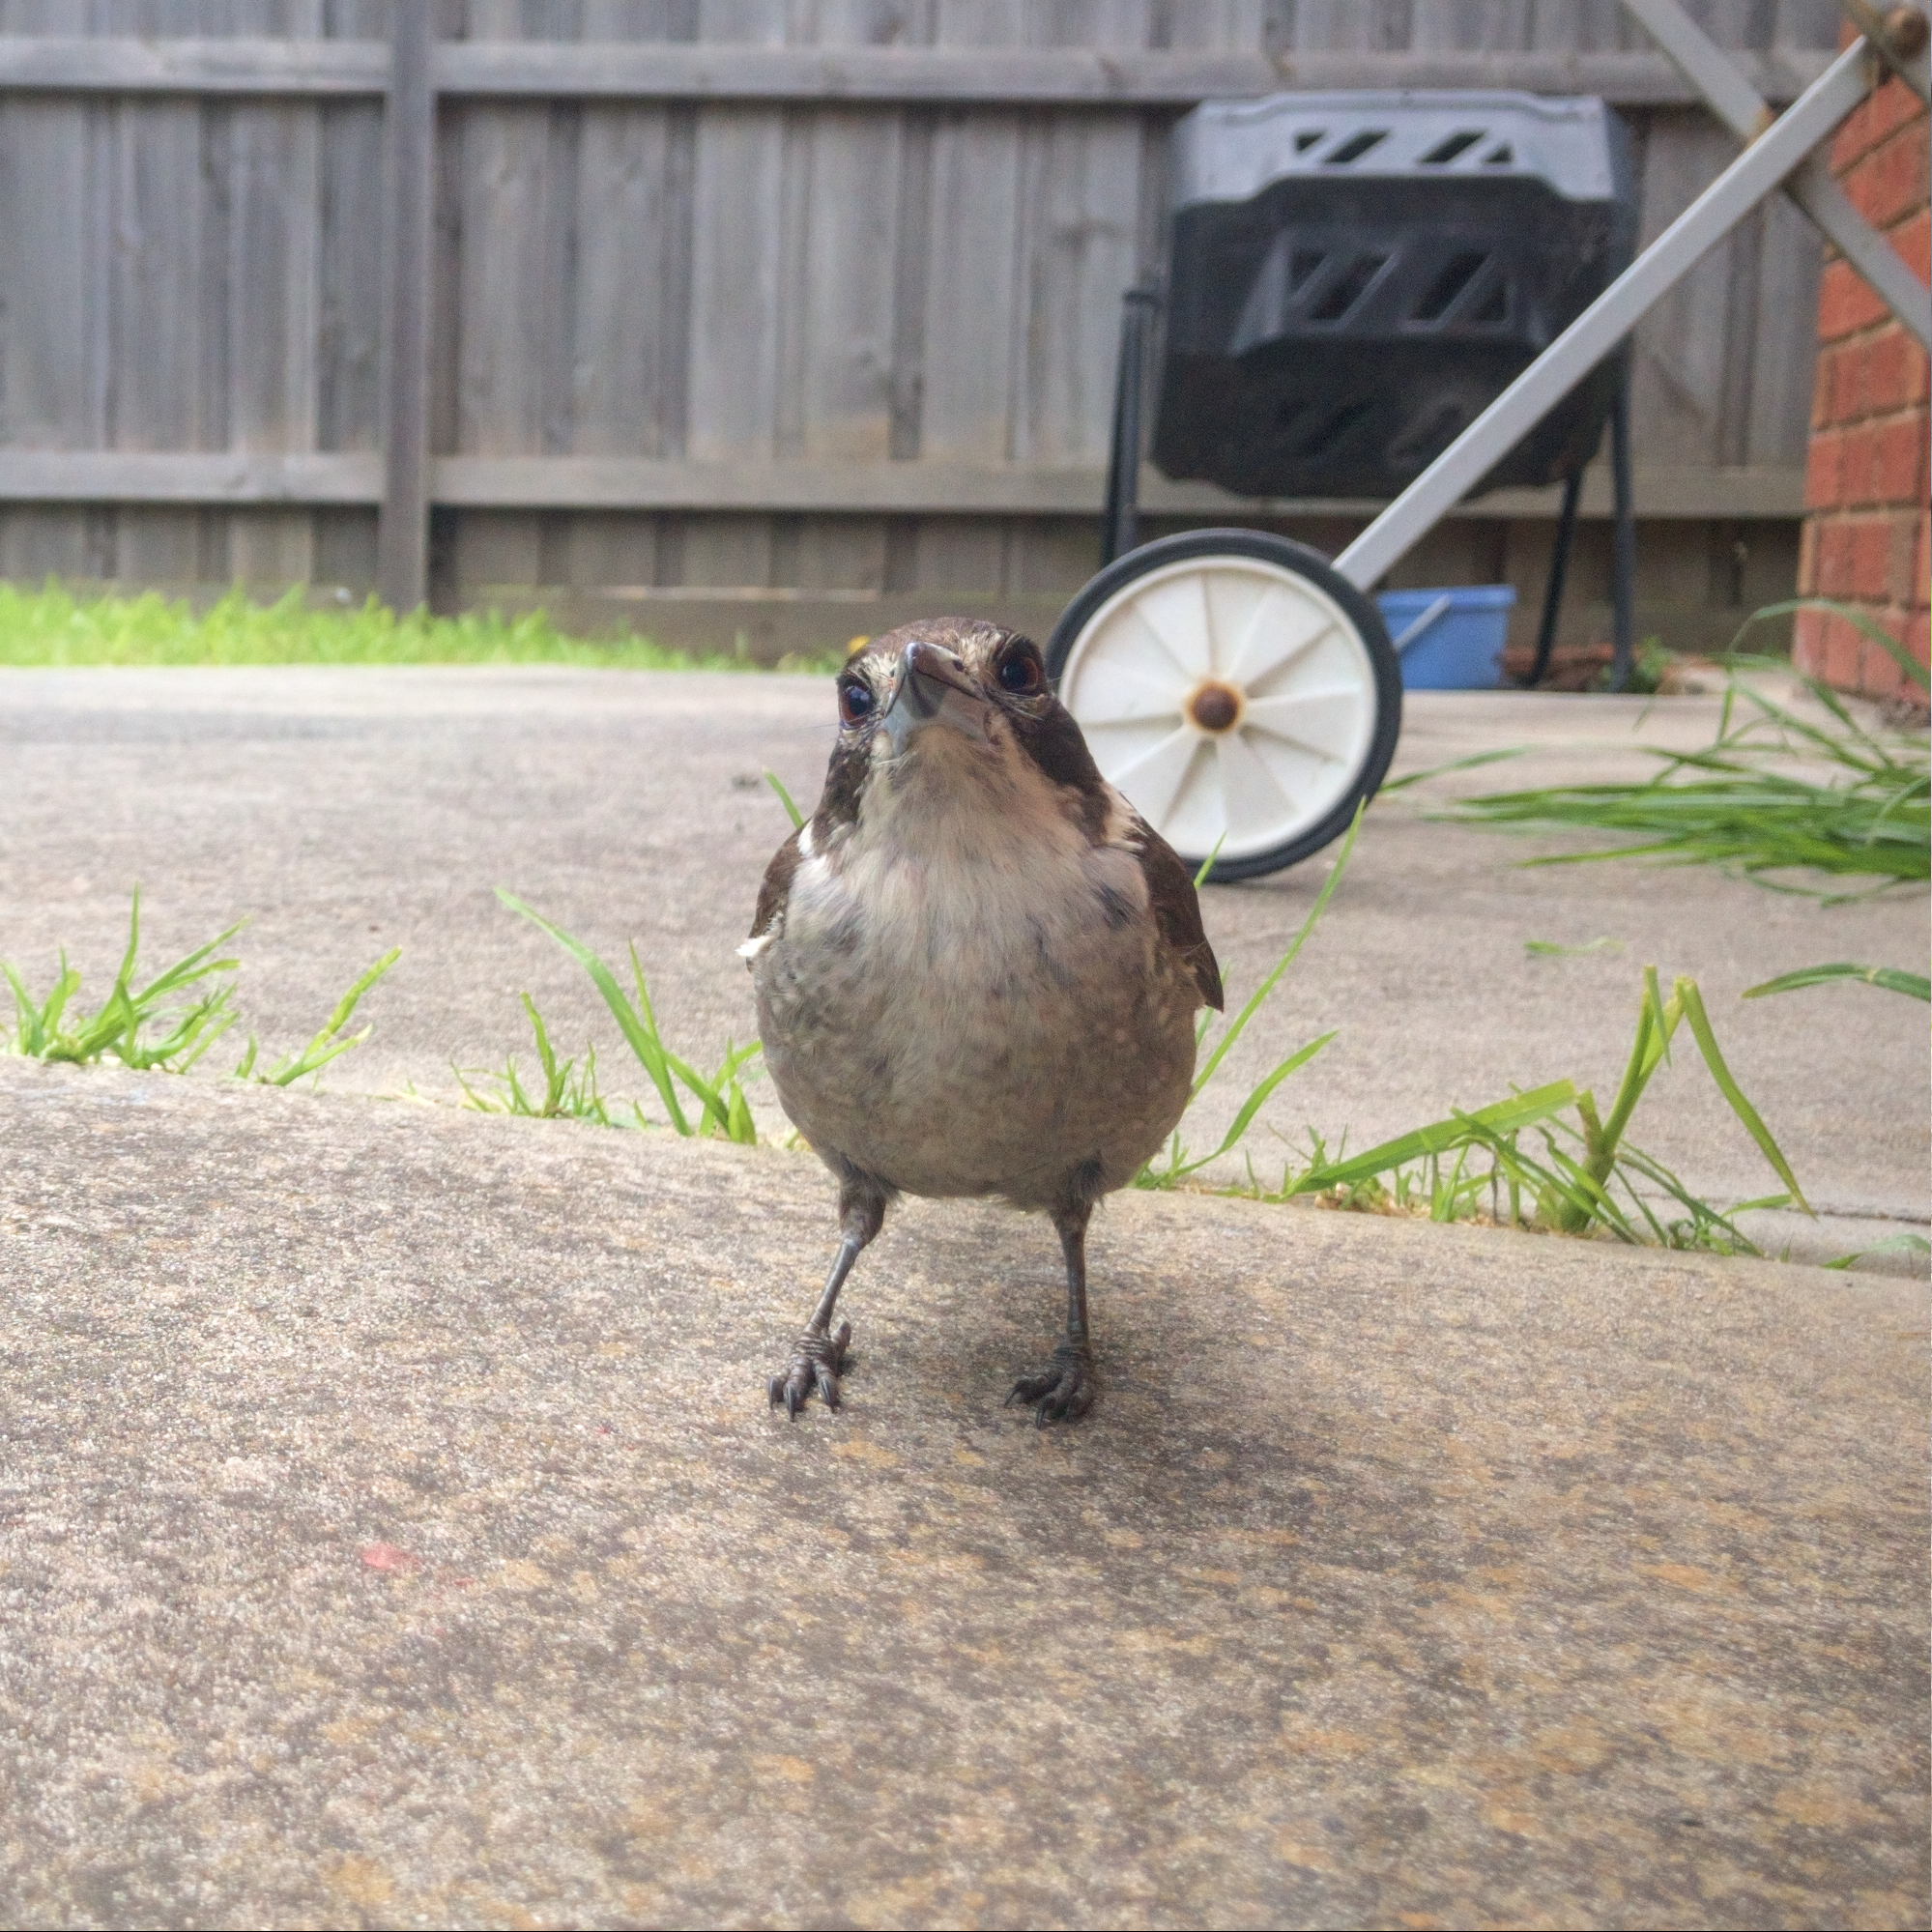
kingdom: Animalia
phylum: Chordata
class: Aves
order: Passeriformes
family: Cracticidae
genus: Cracticus
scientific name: Cracticus torquatus
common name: Grey butcherbird
